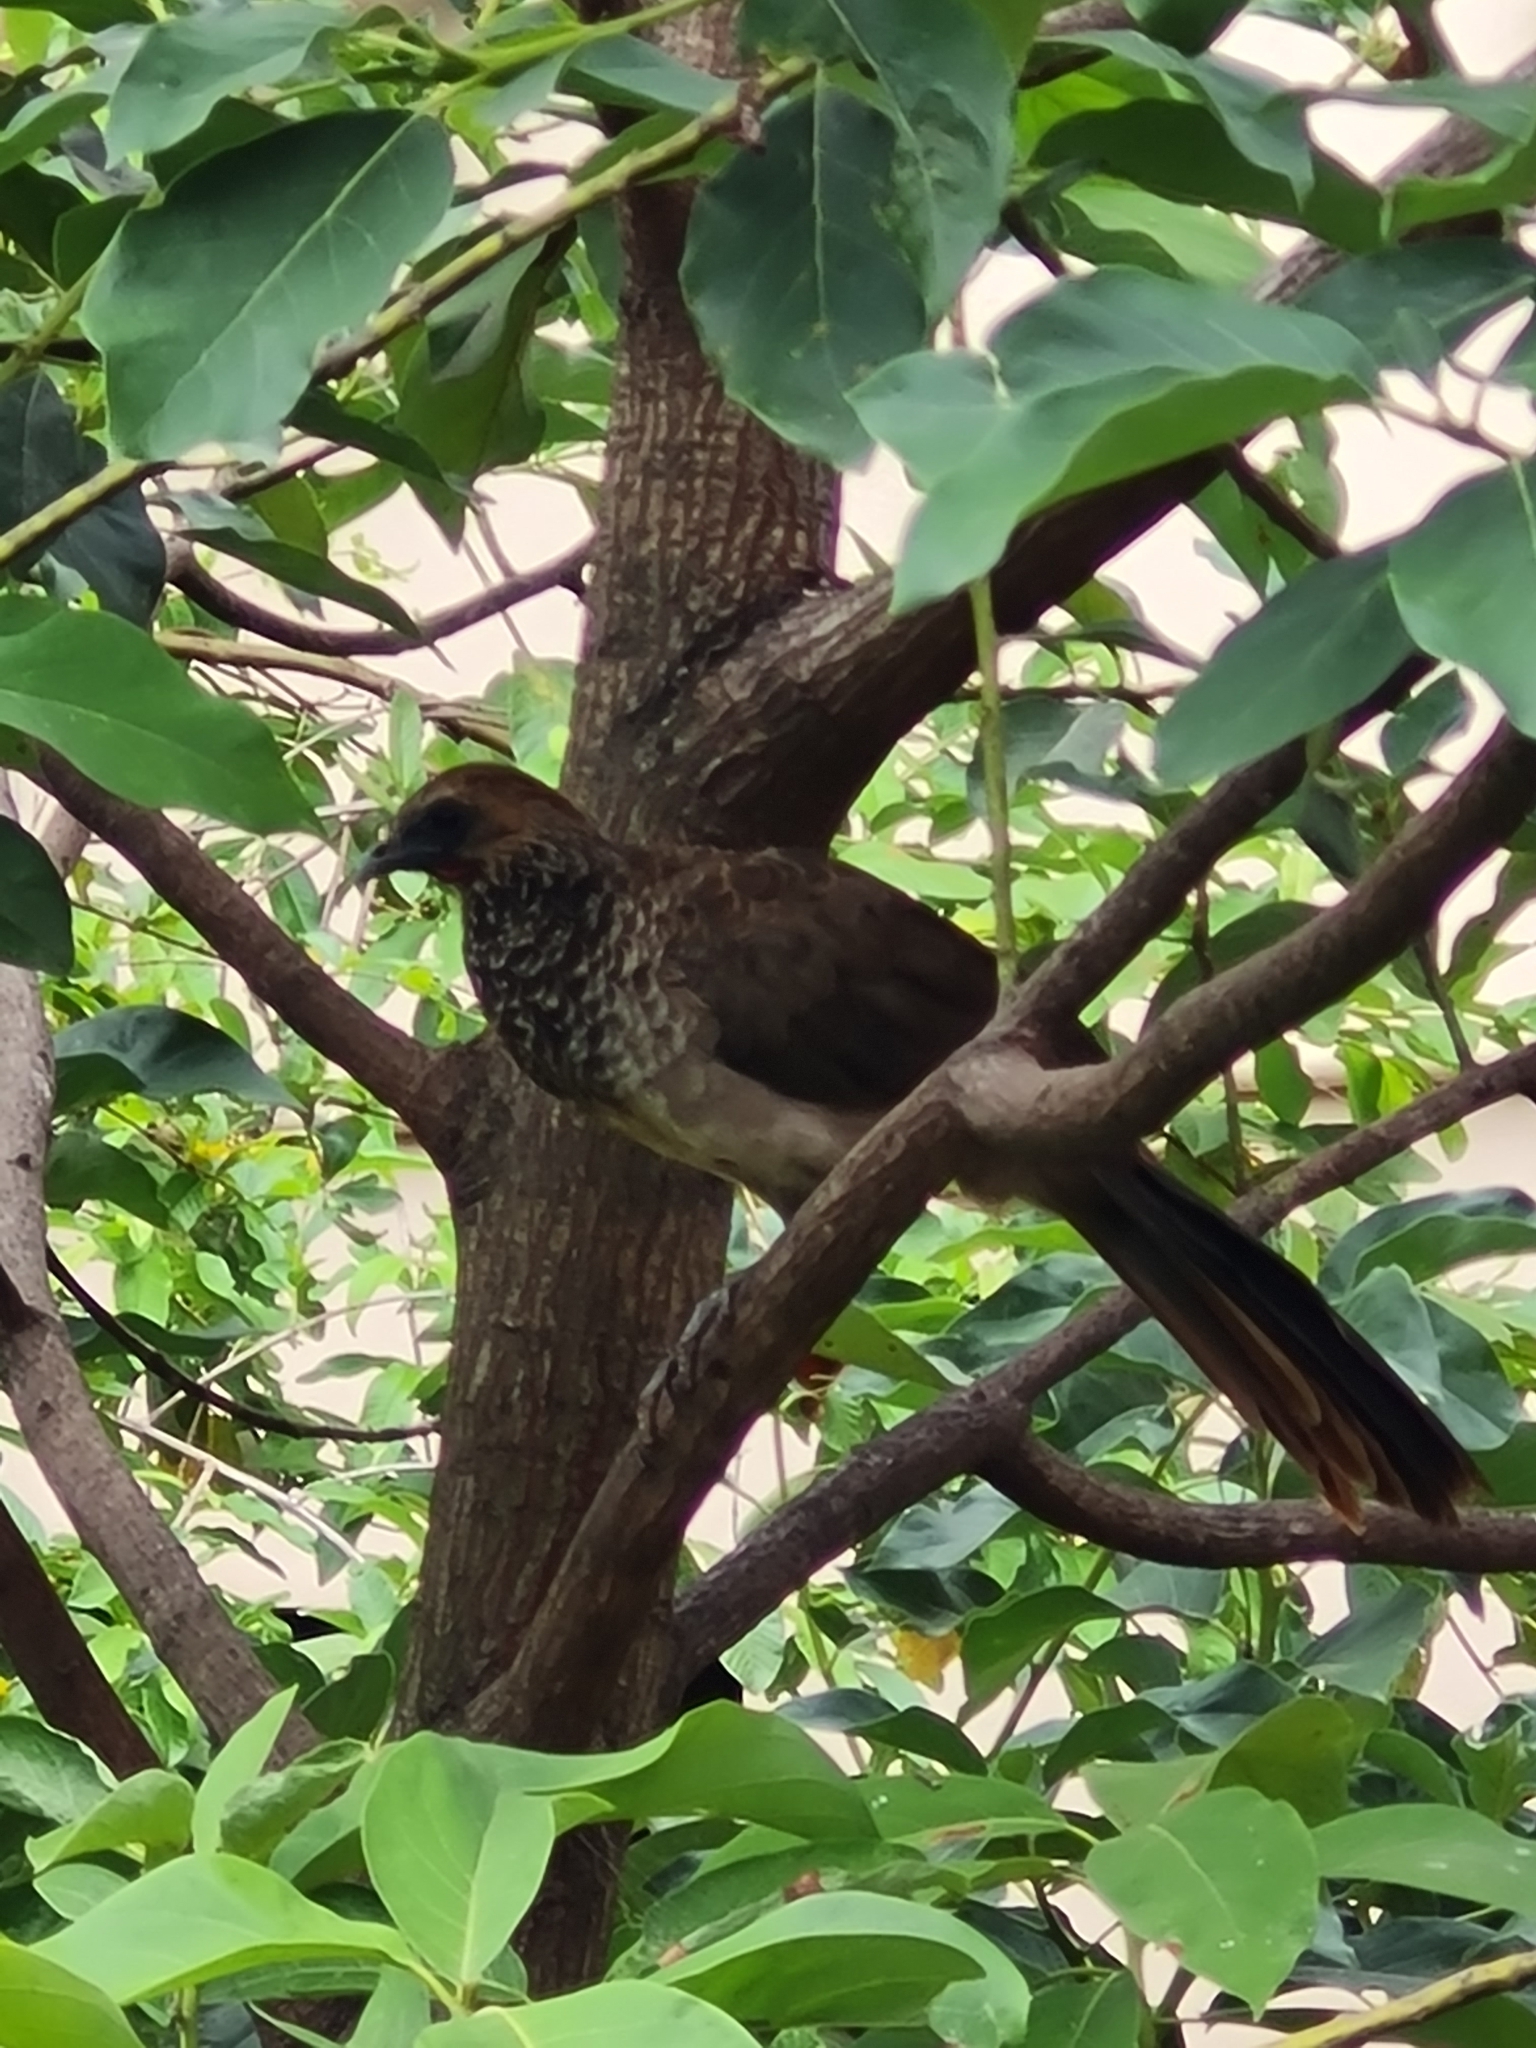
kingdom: Animalia
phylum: Chordata
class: Aves
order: Galliformes
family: Cracidae
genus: Ortalis
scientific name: Ortalis araucuan
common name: East brazilian chachalaca
